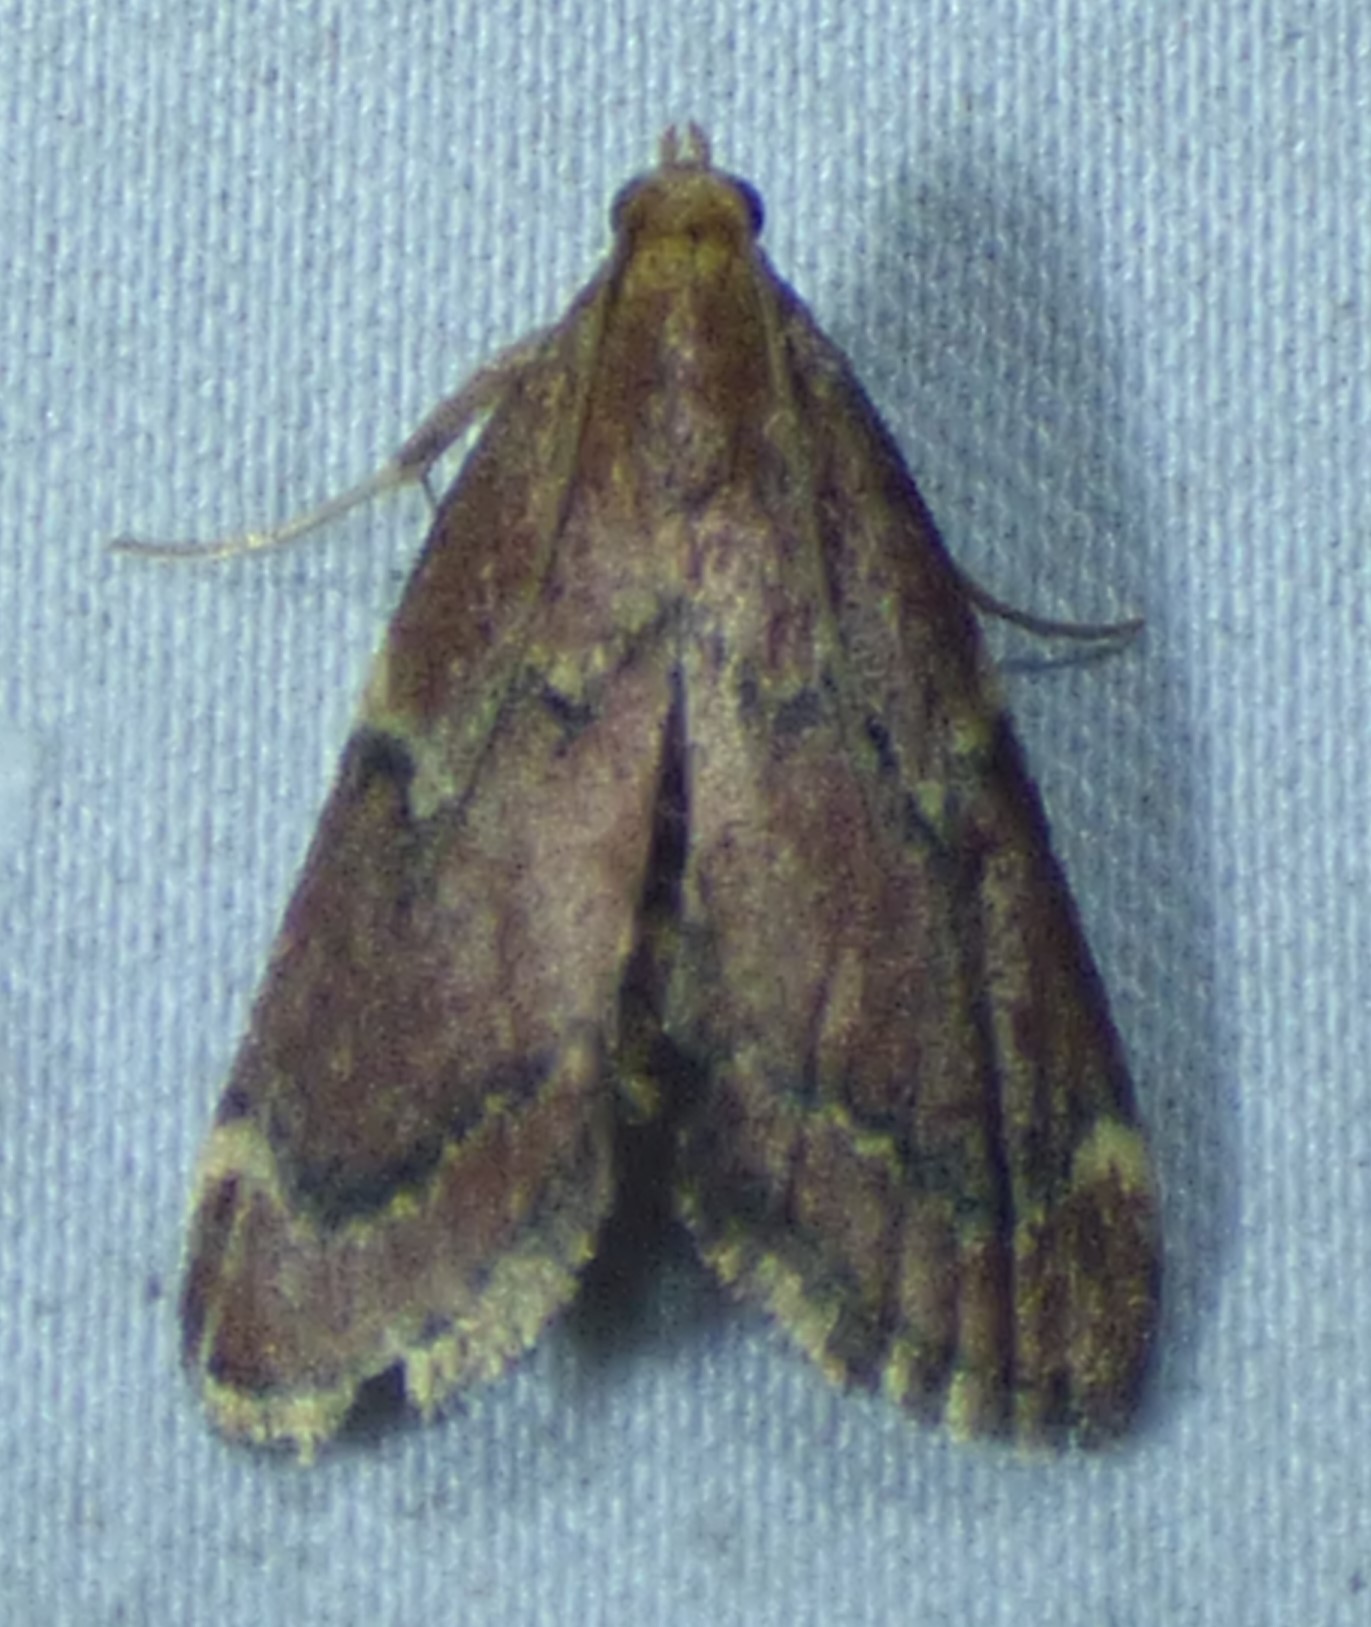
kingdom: Animalia
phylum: Arthropoda
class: Insecta
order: Lepidoptera
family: Pyralidae
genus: Hypsopygia
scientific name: Hypsopygia intermedialis
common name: Red-shawled moth
